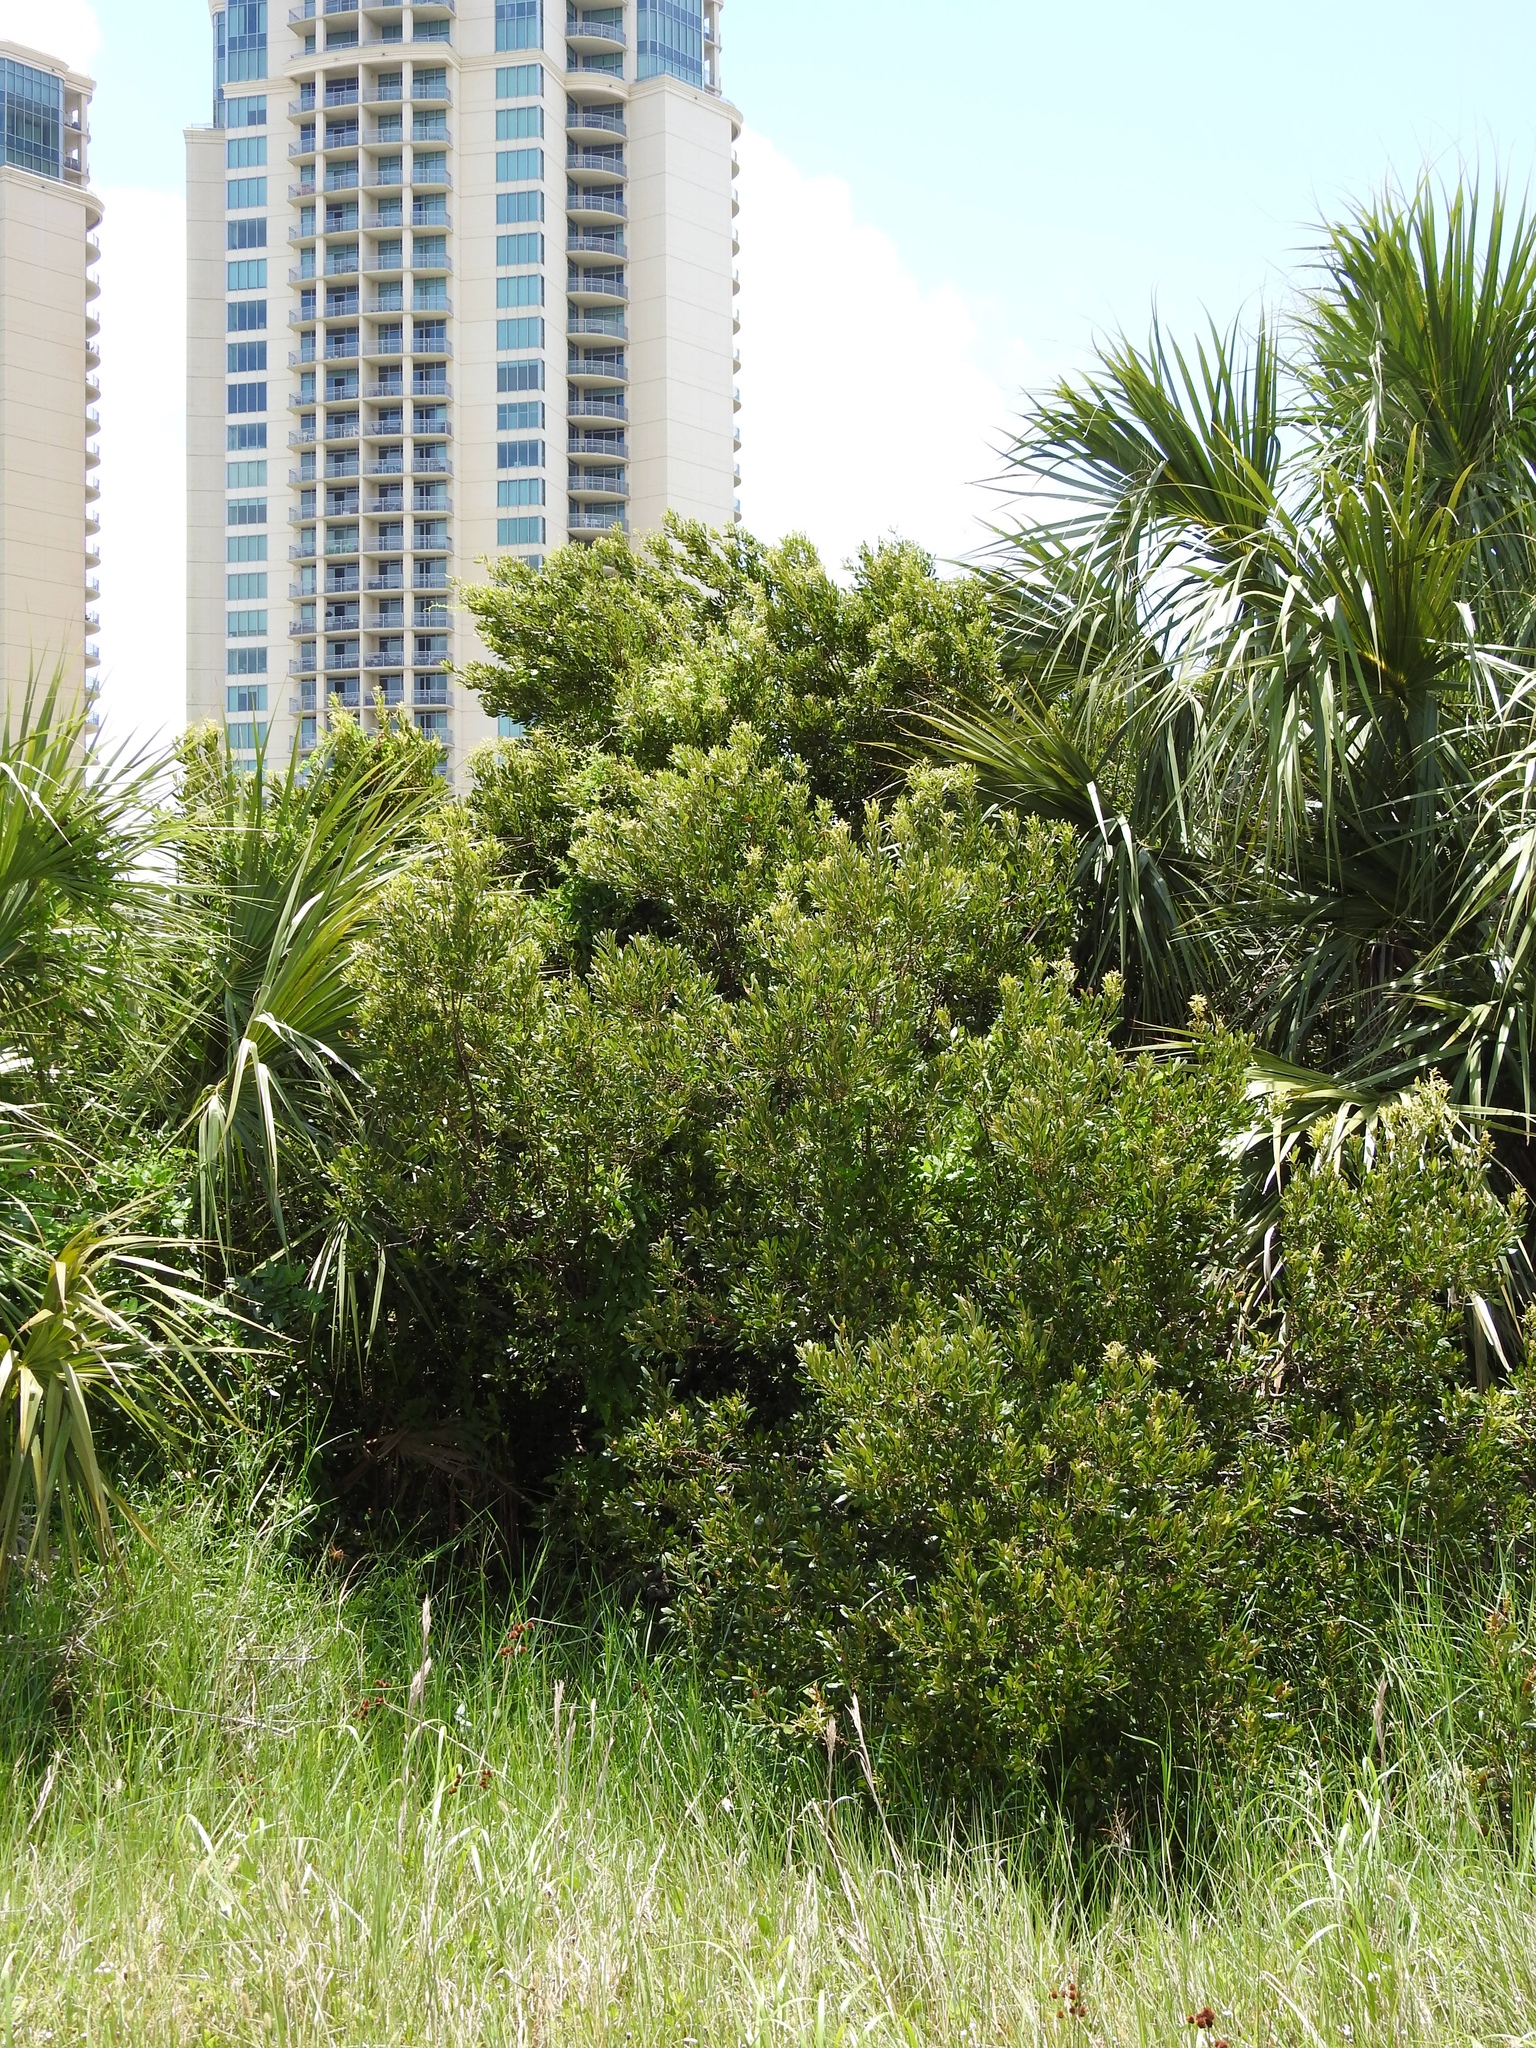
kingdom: Plantae
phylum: Tracheophyta
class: Magnoliopsida
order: Fagales
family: Myricaceae
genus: Morella
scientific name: Morella cerifera
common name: Wax myrtle
